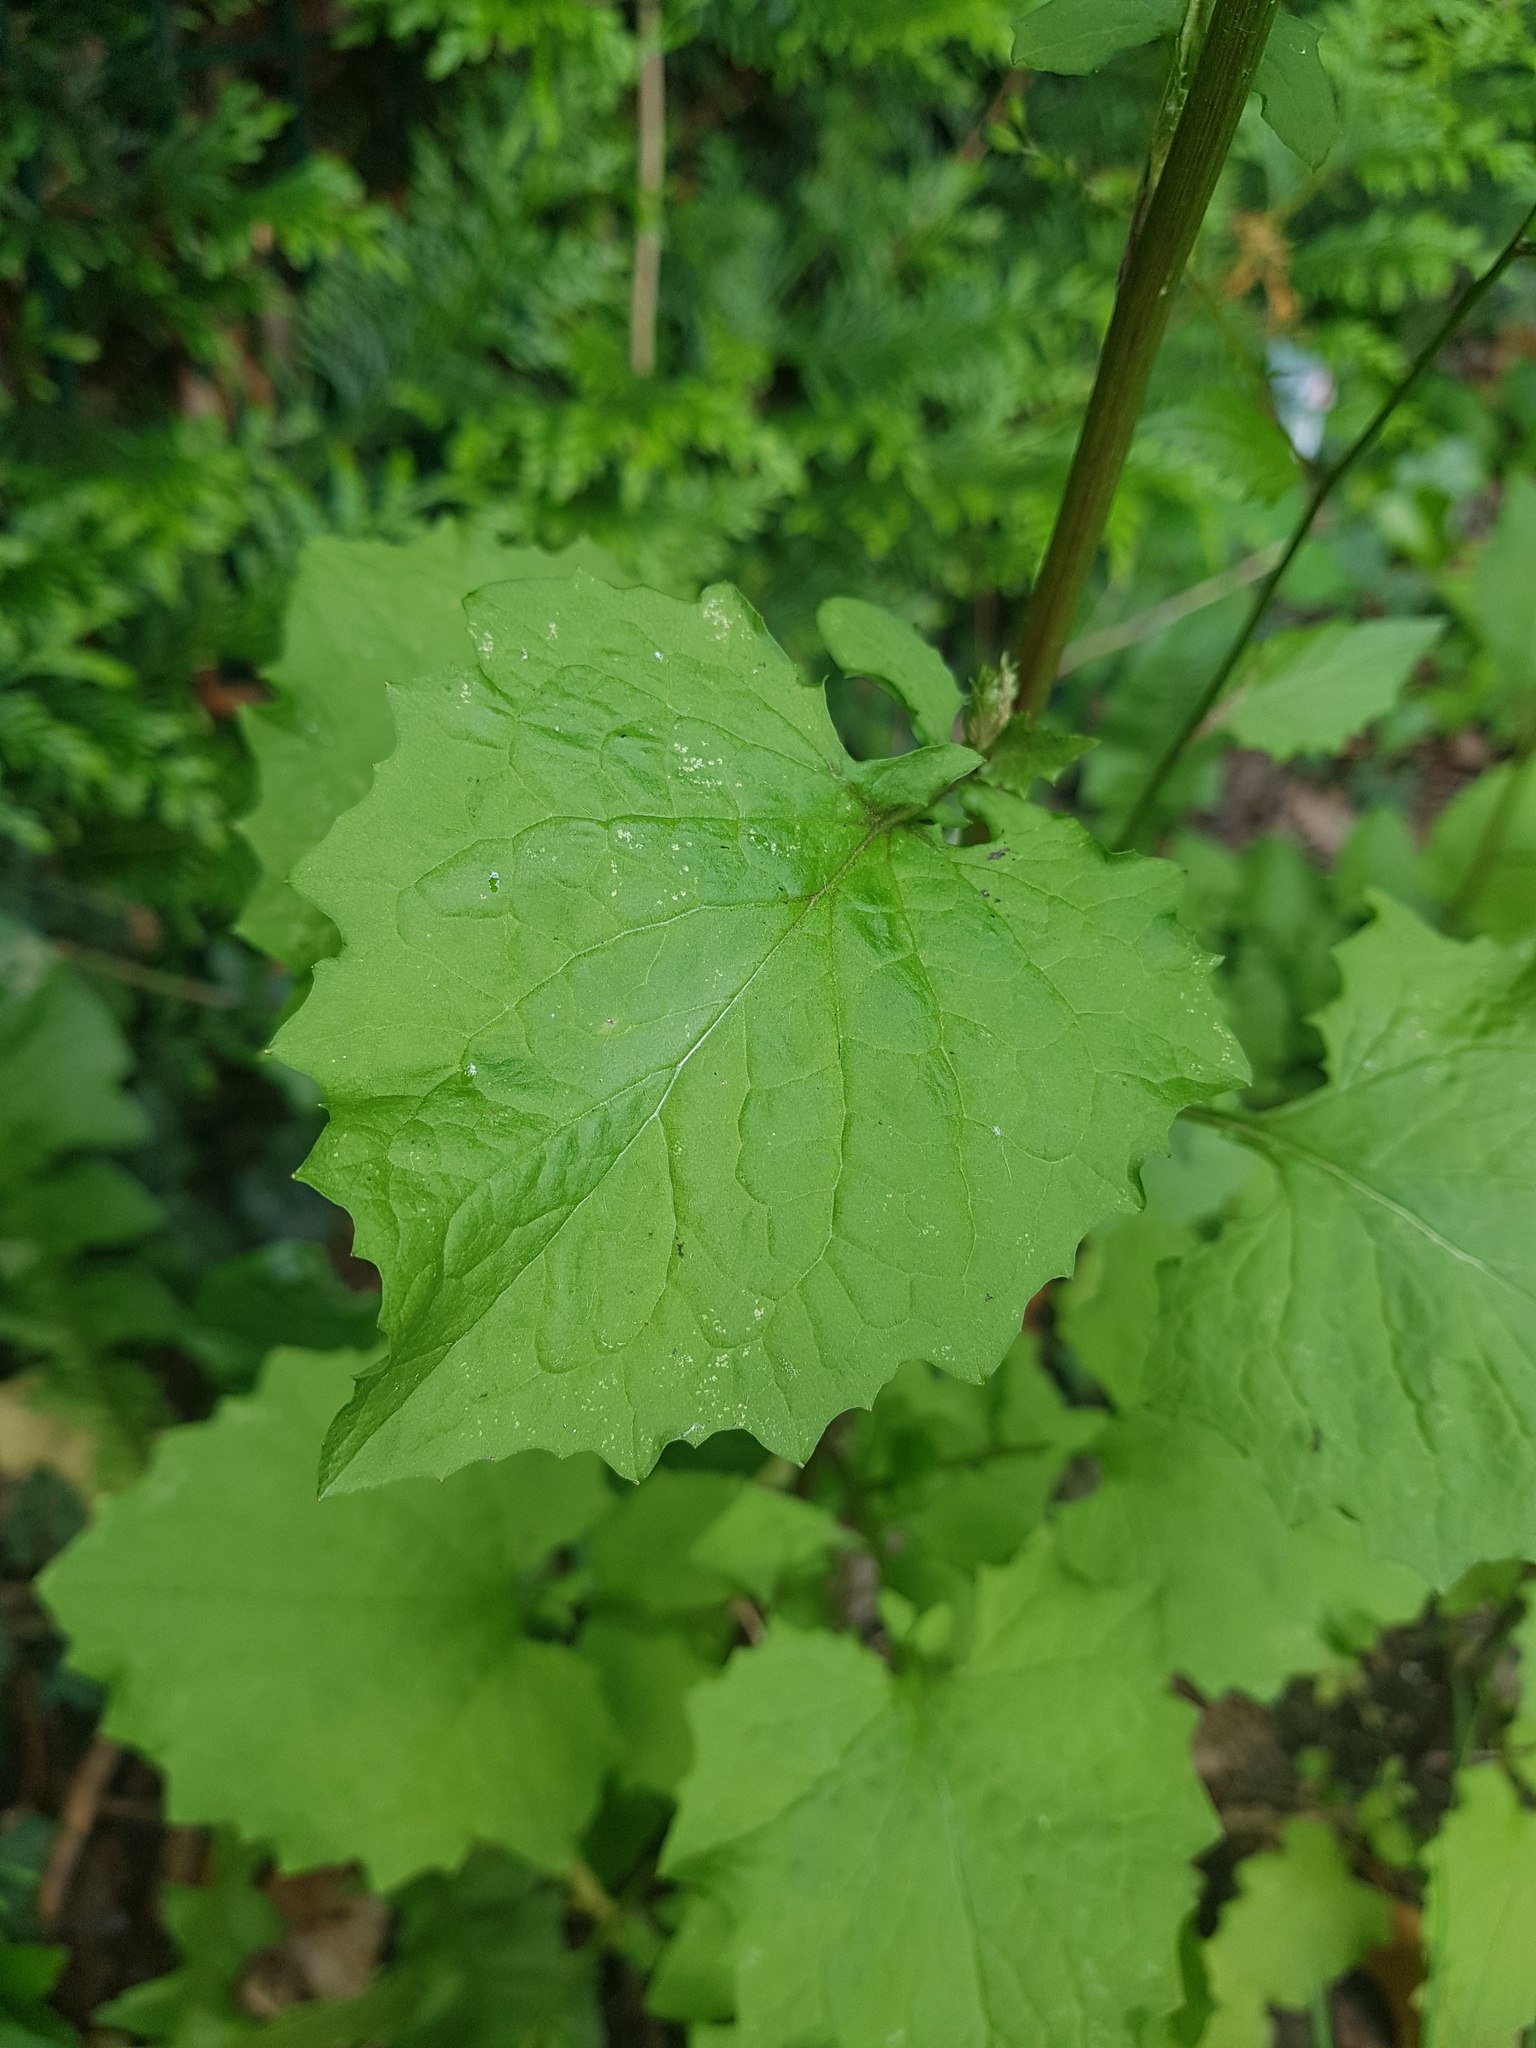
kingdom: Plantae
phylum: Tracheophyta
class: Magnoliopsida
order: Asterales
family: Asteraceae
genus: Lapsana
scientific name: Lapsana communis
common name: Nipplewort
